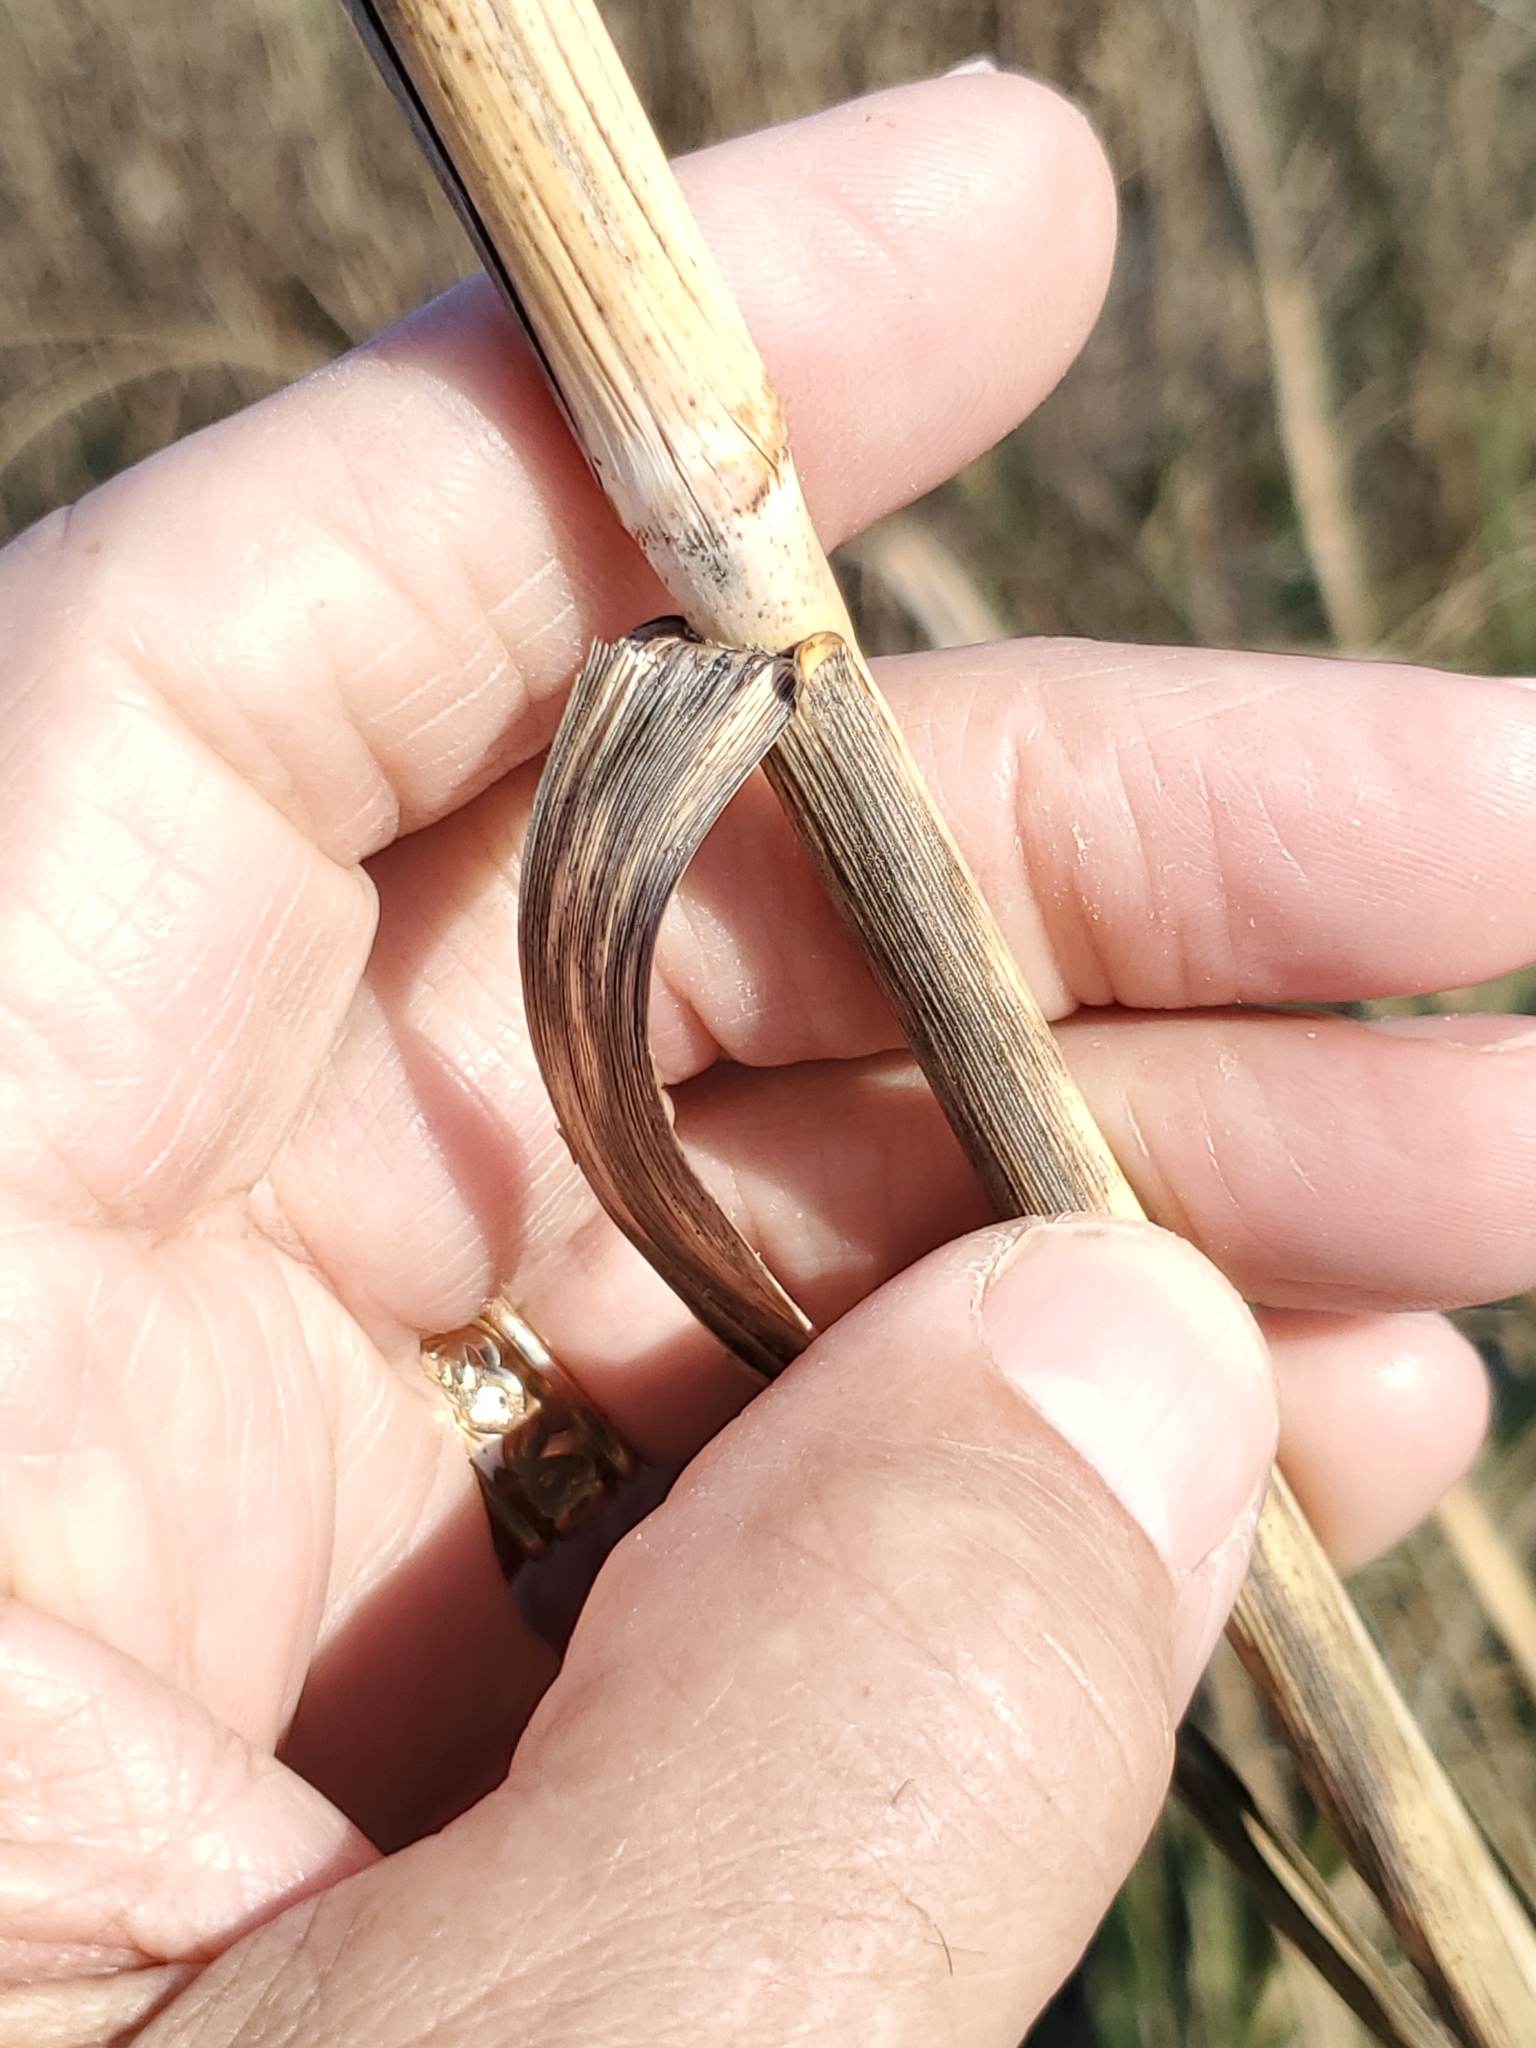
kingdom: Plantae
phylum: Tracheophyta
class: Liliopsida
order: Poales
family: Poaceae
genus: Uniola
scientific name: Uniola paniculata
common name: Seaside-oats
